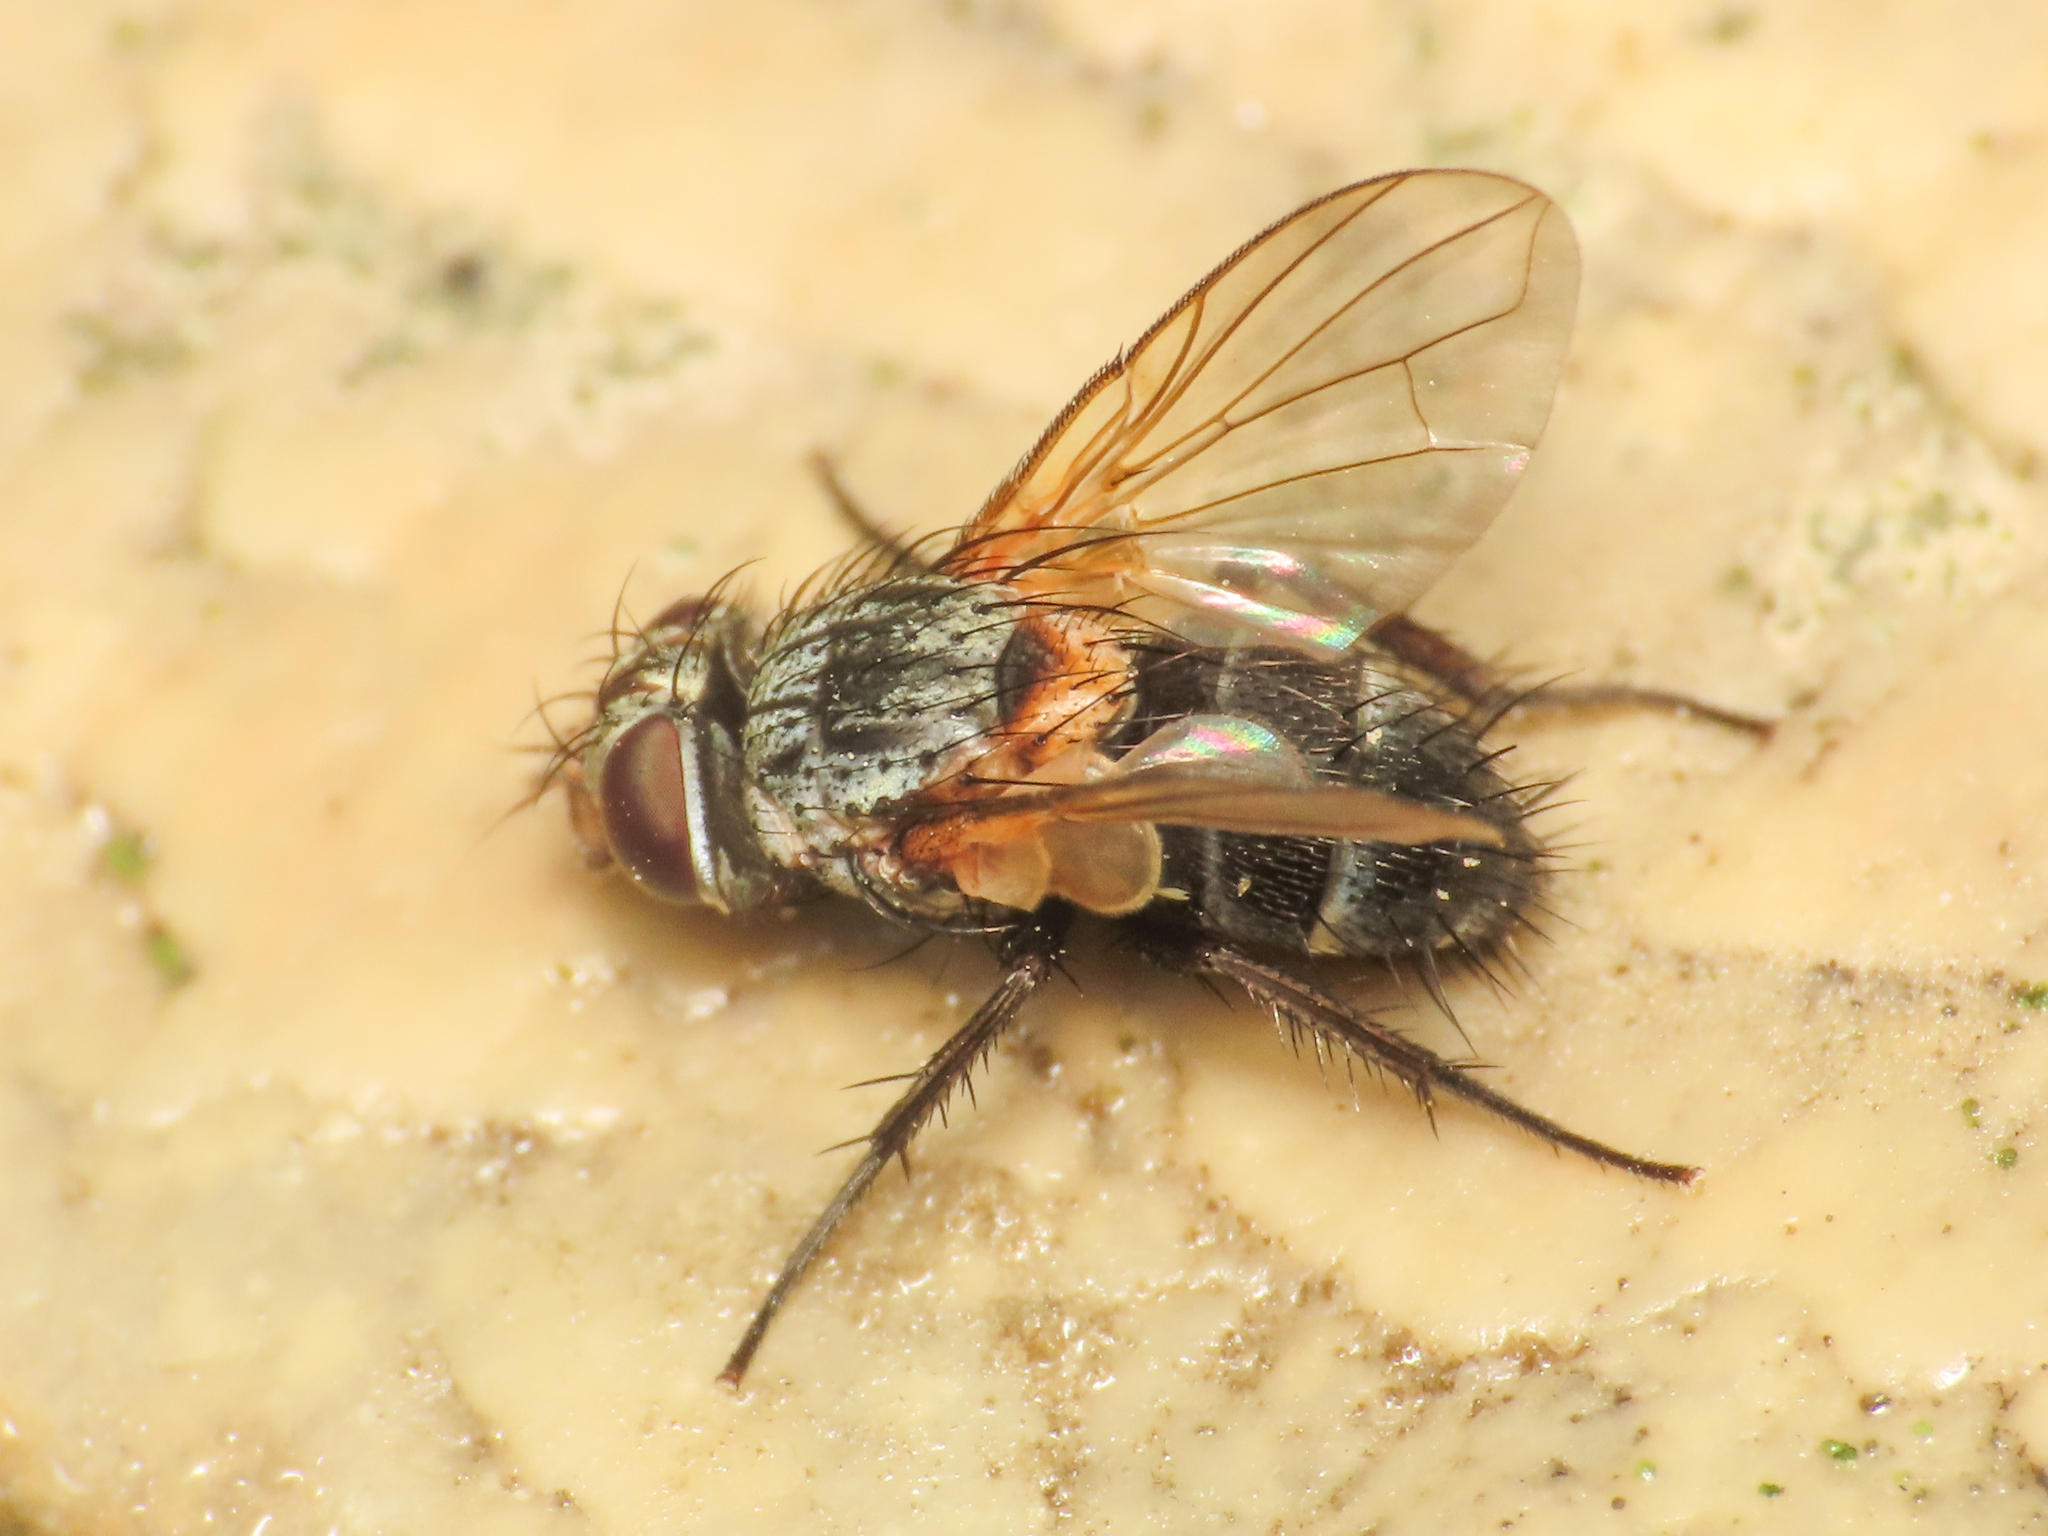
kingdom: Animalia
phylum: Arthropoda
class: Insecta
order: Diptera
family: Tachinidae
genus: Eurysthaea
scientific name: Eurysthaea scutellaris
